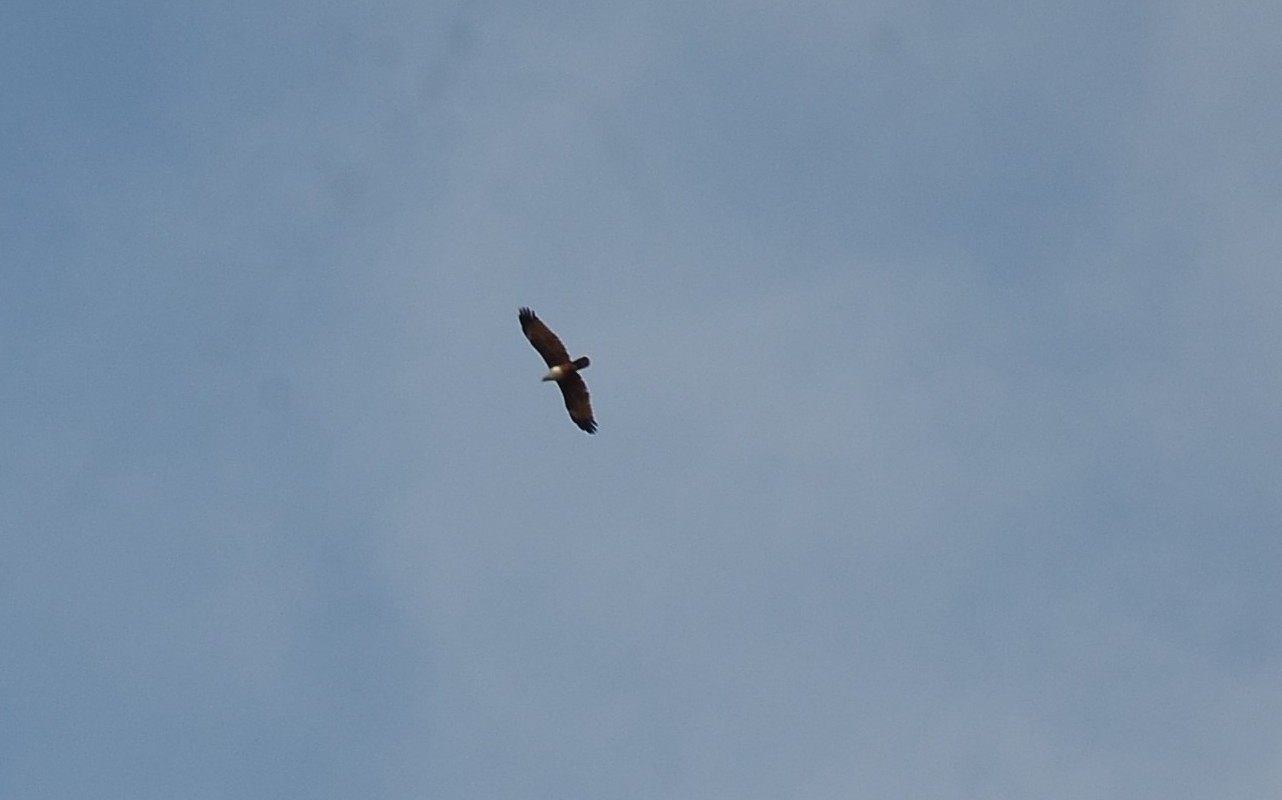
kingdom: Animalia
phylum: Chordata
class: Aves
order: Accipitriformes
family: Accipitridae
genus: Haliastur
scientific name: Haliastur indus
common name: Brahminy kite
